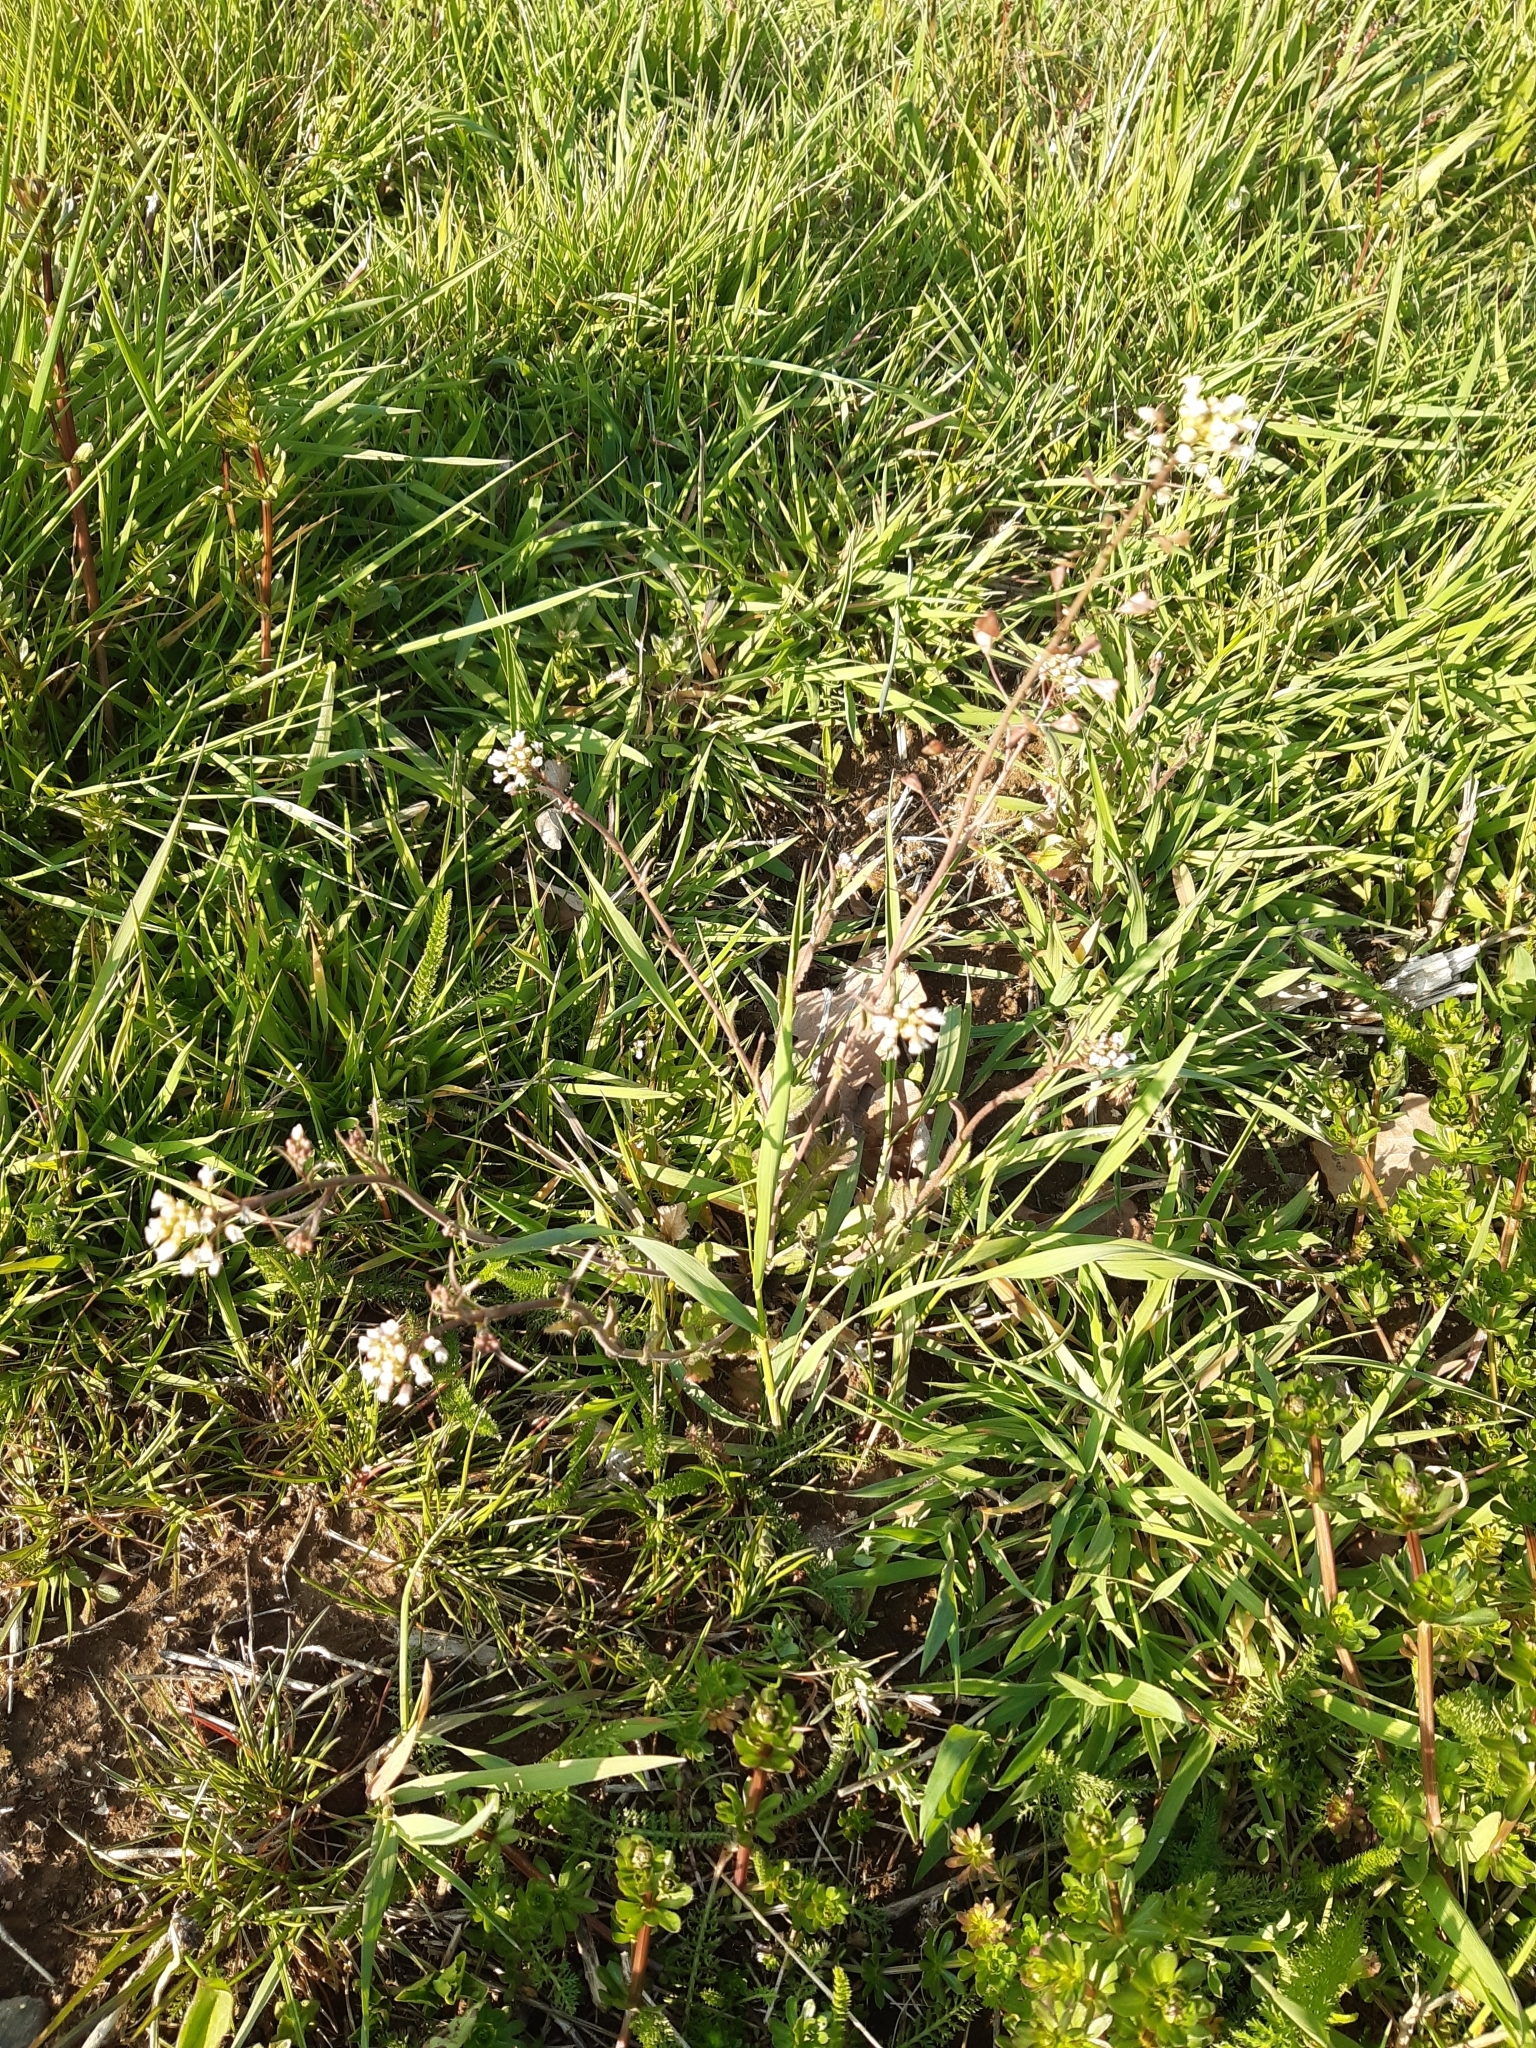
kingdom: Plantae
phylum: Tracheophyta
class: Magnoliopsida
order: Brassicales
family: Brassicaceae
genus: Capsella
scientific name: Capsella bursa-pastoris
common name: Shepherd's purse
